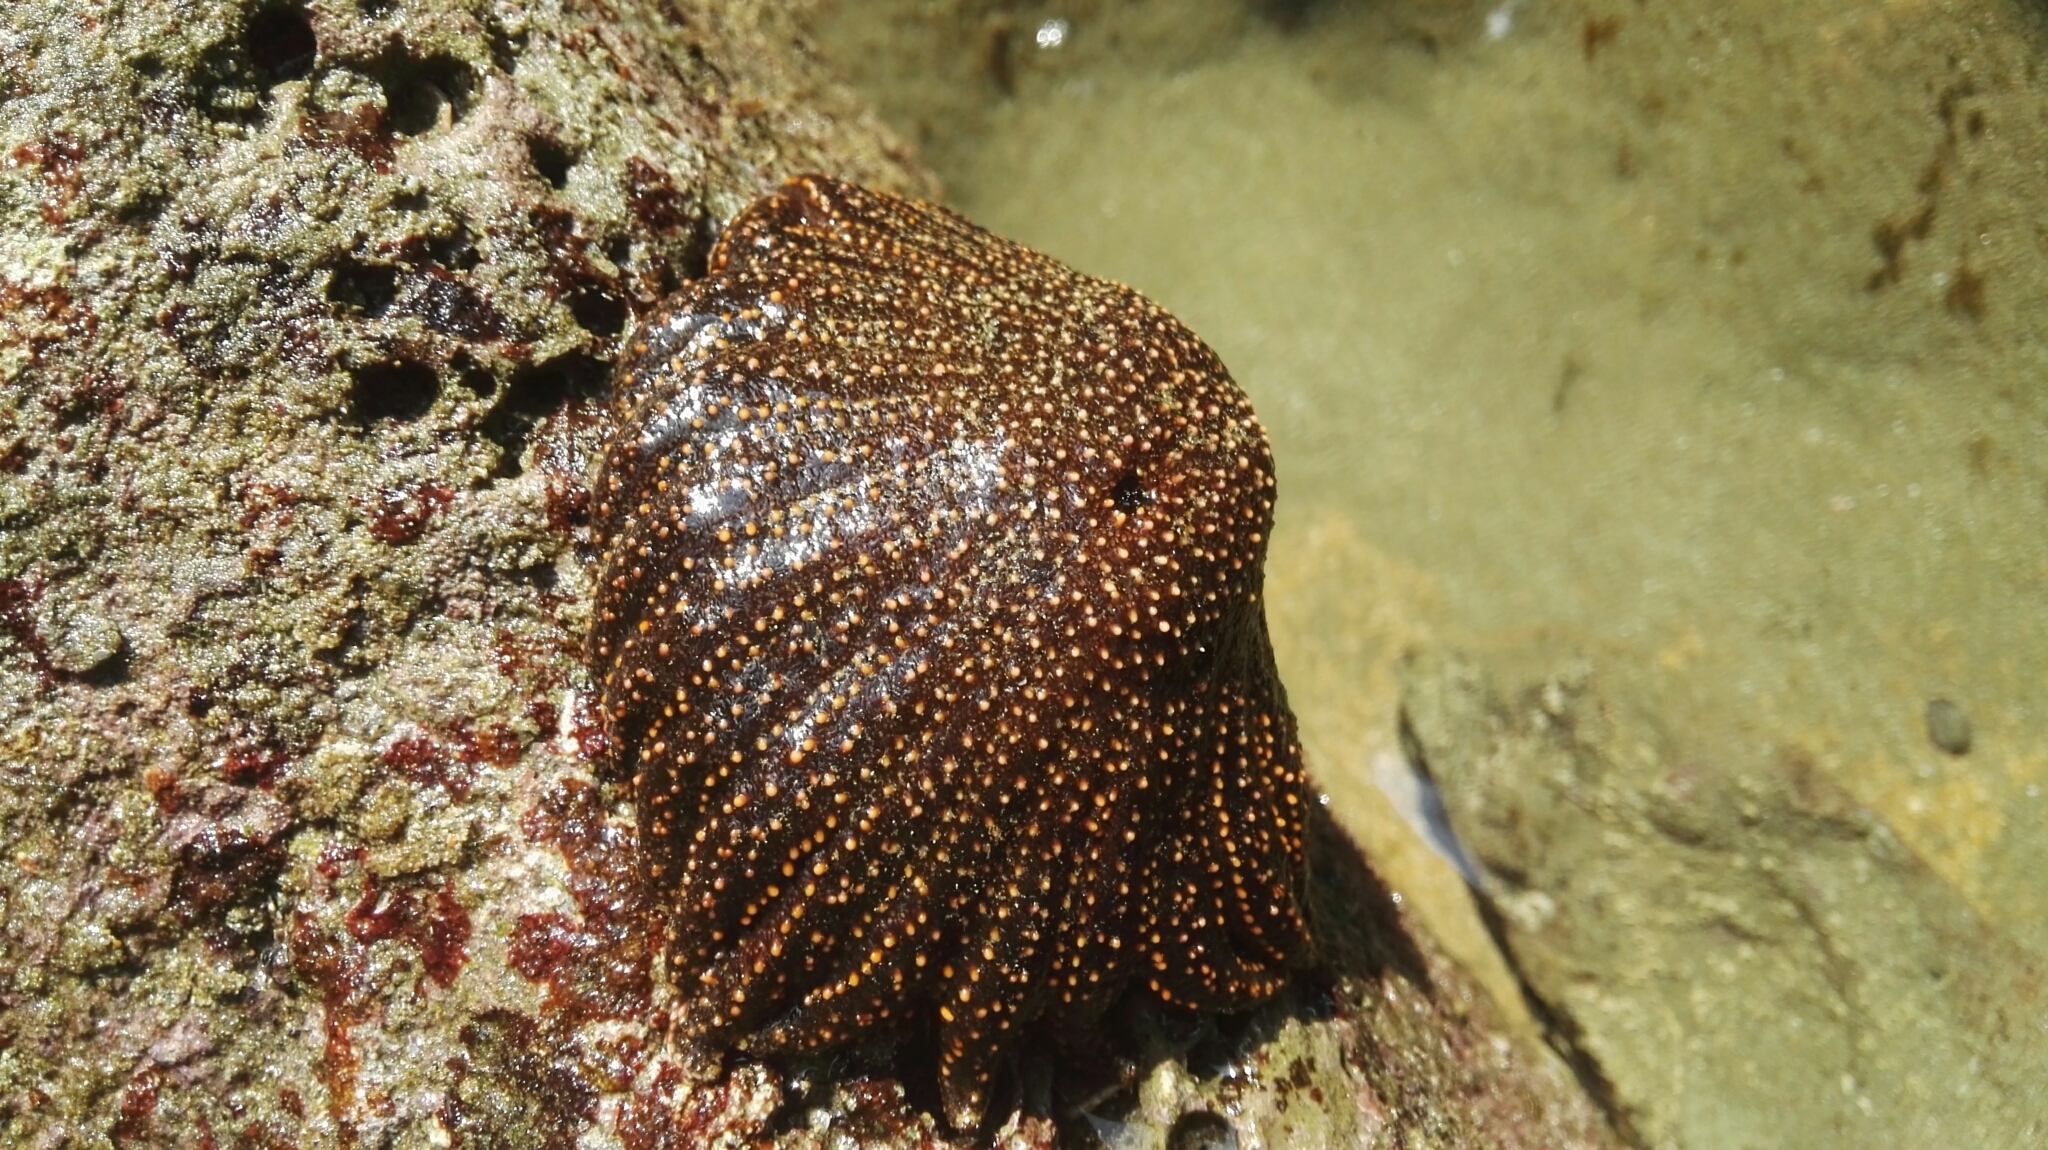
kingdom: Animalia
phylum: Echinodermata
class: Asteroidea
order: Forcipulatida
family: Heliasteridae
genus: Heliaster
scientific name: Heliaster cumingi
